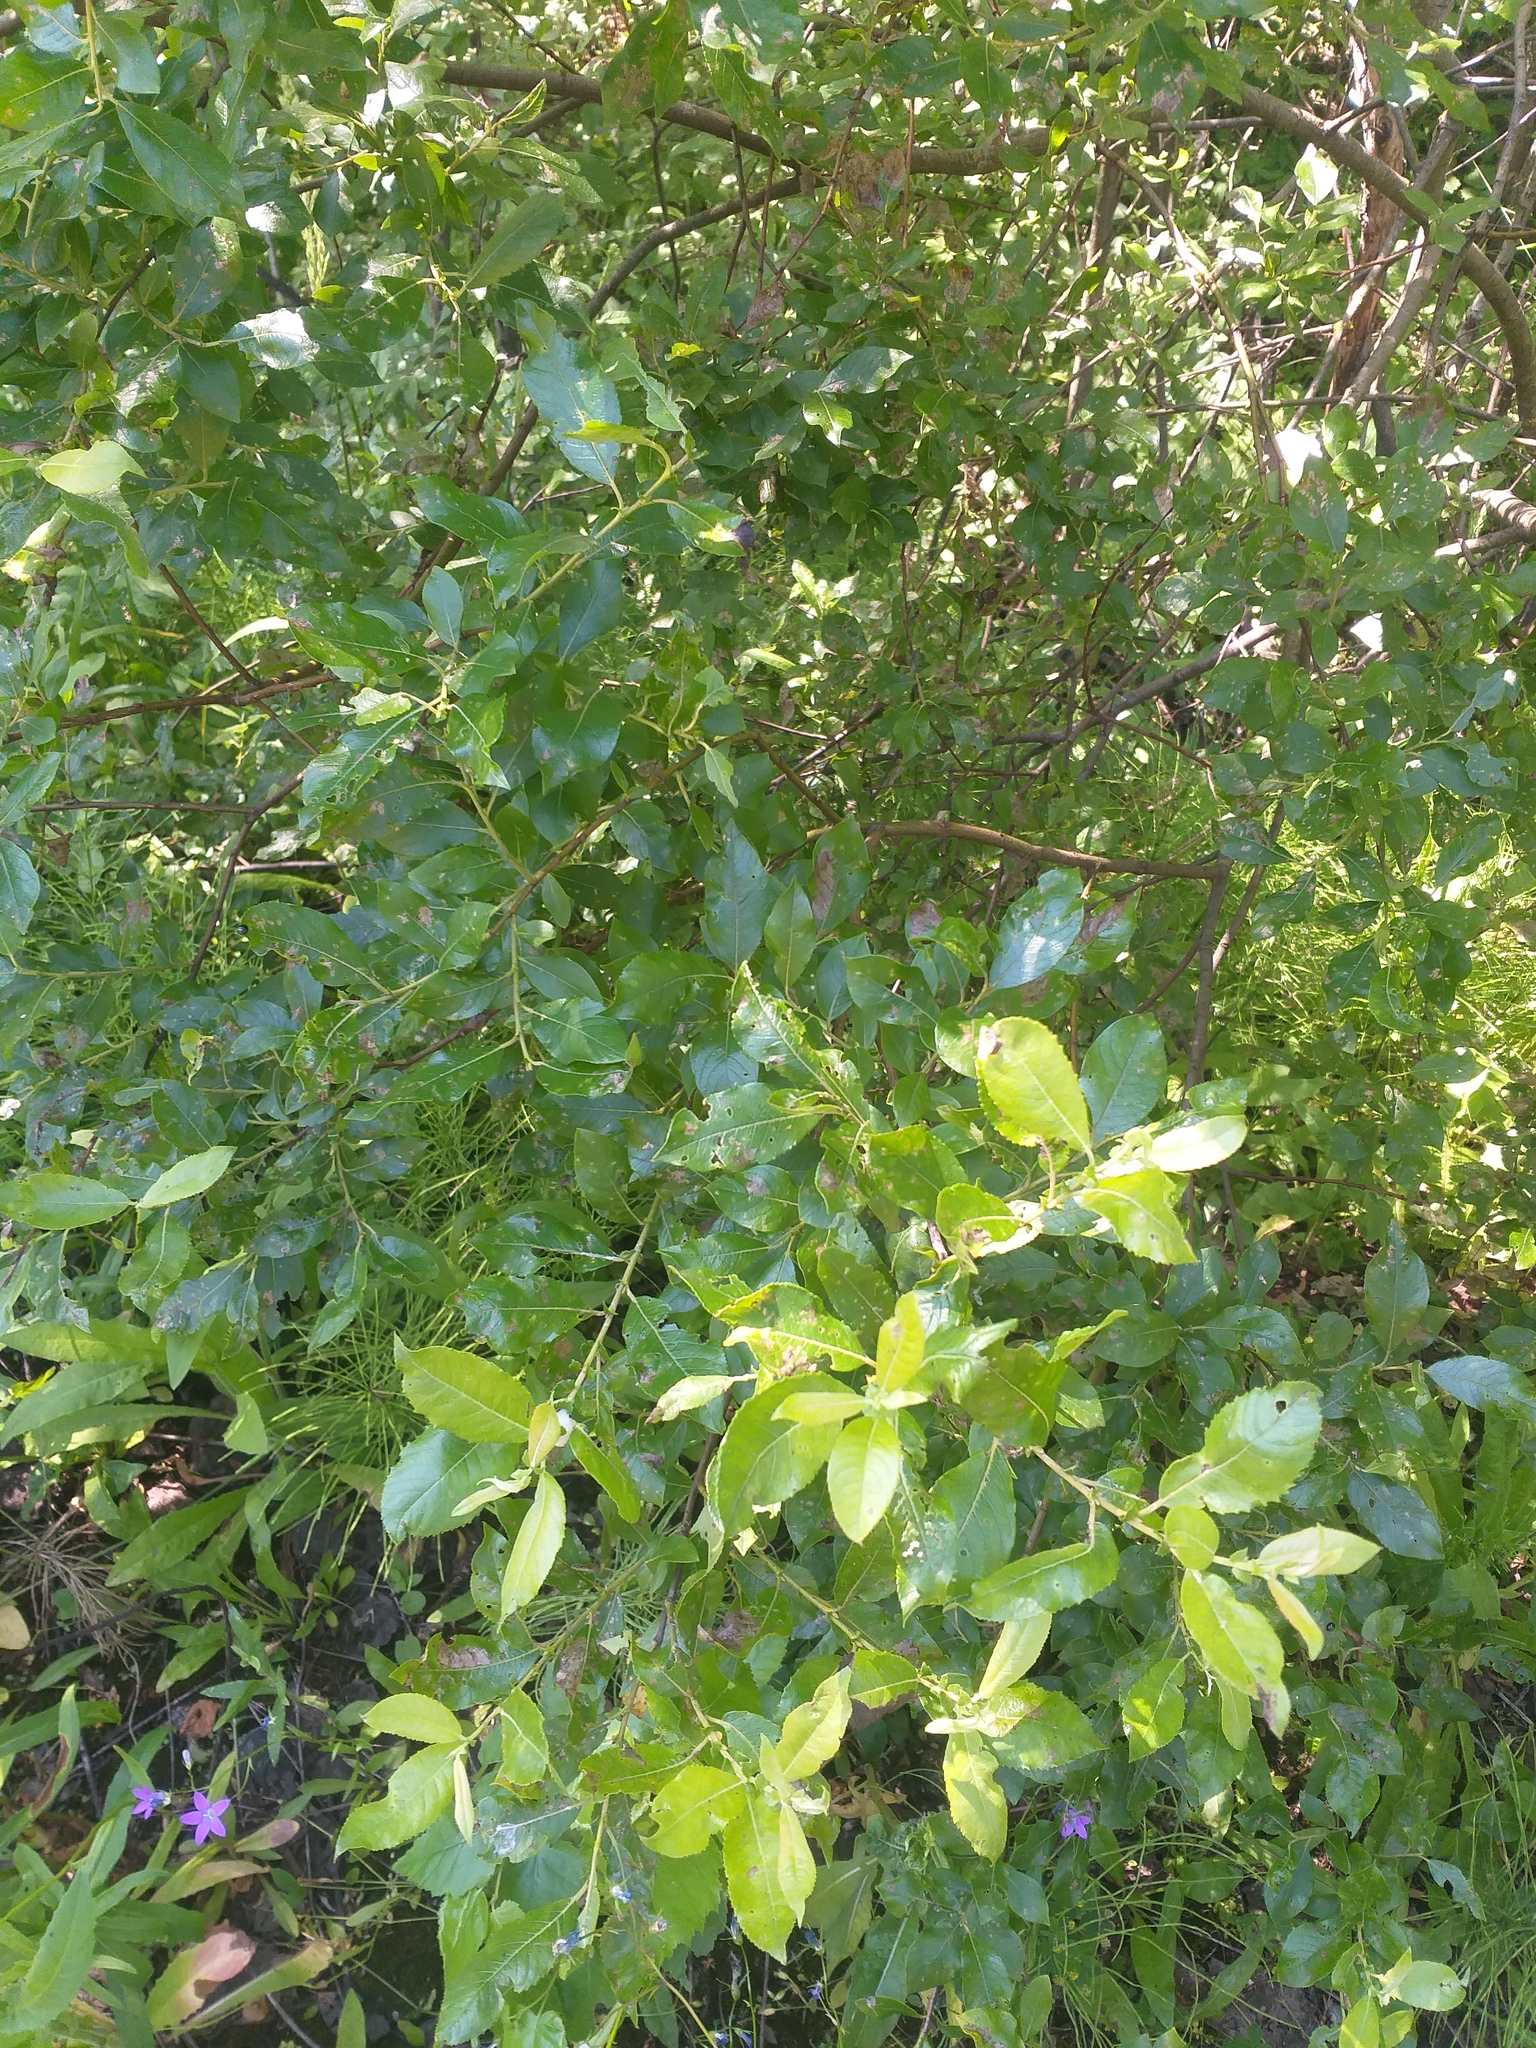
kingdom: Plantae
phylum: Tracheophyta
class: Magnoliopsida
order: Malpighiales
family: Salicaceae
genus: Salix
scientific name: Salix myrsinifolia
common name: Dark-leaved willow
